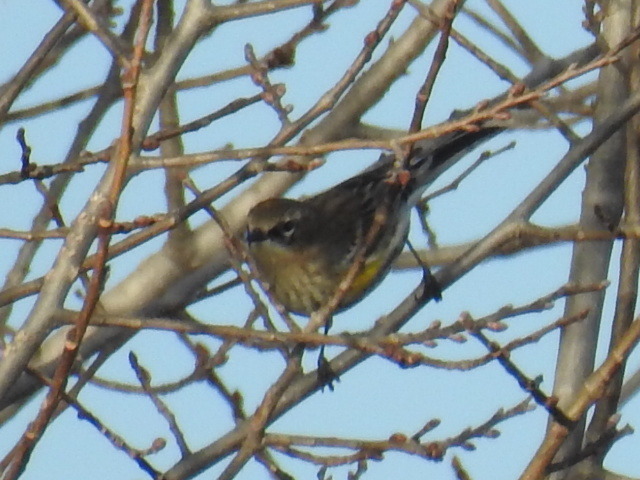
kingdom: Animalia
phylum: Chordata
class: Aves
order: Passeriformes
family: Parulidae
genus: Setophaga
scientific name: Setophaga coronata
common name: Myrtle warbler
